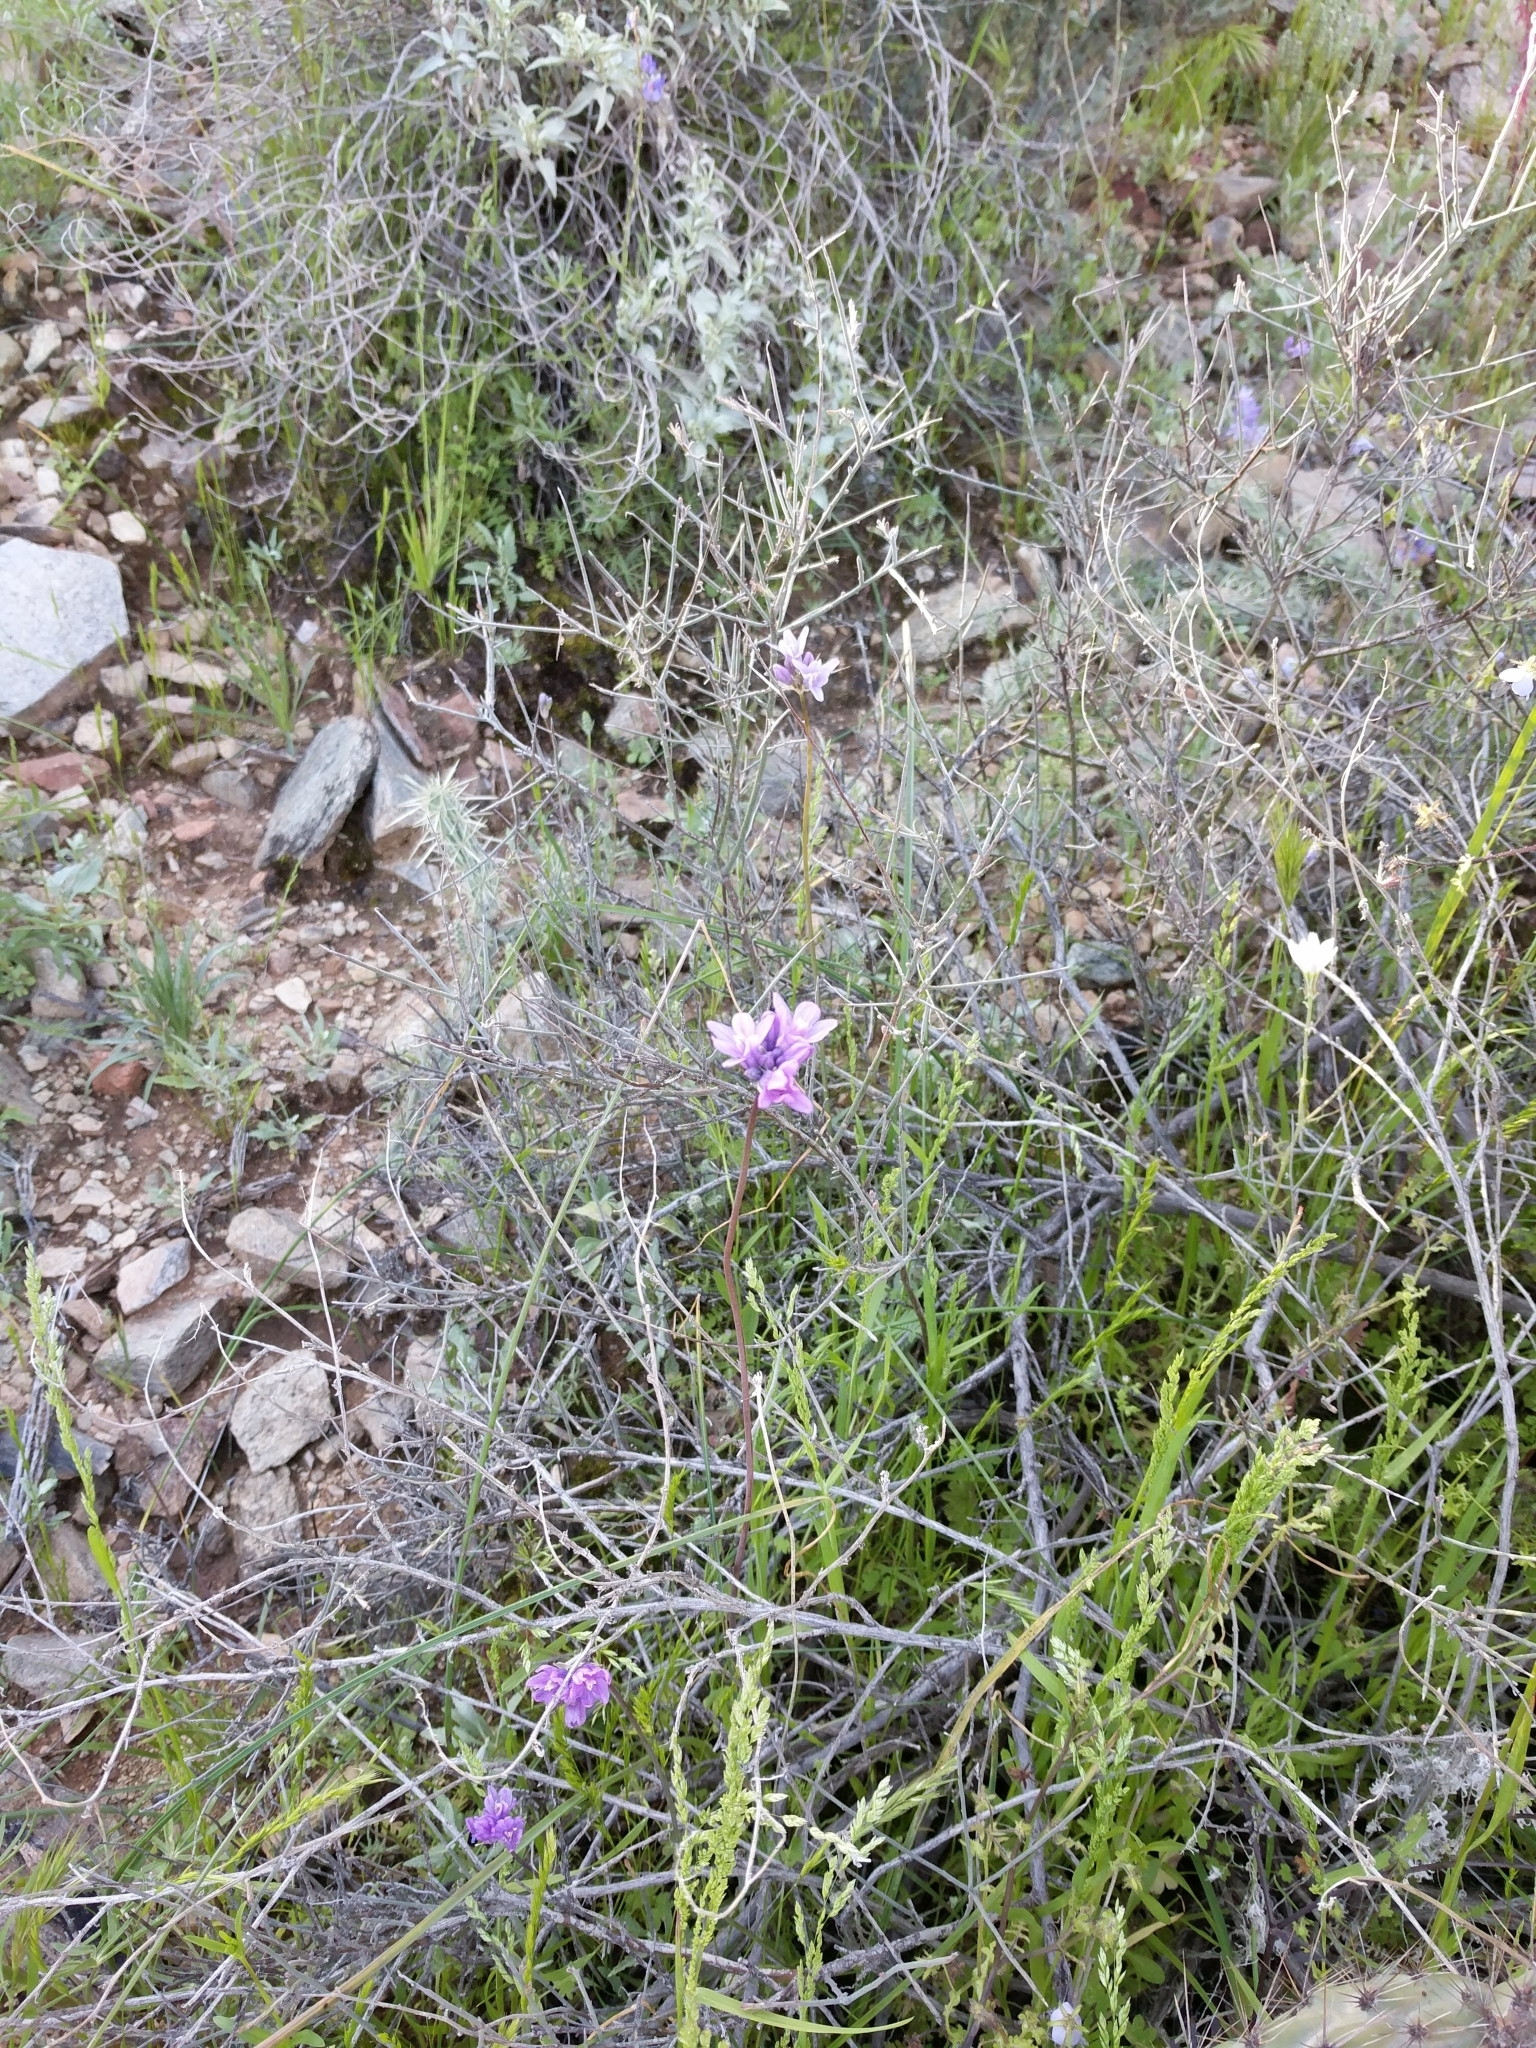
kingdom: Plantae
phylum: Tracheophyta
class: Liliopsida
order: Asparagales
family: Asparagaceae
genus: Dipterostemon
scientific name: Dipterostemon capitatus
